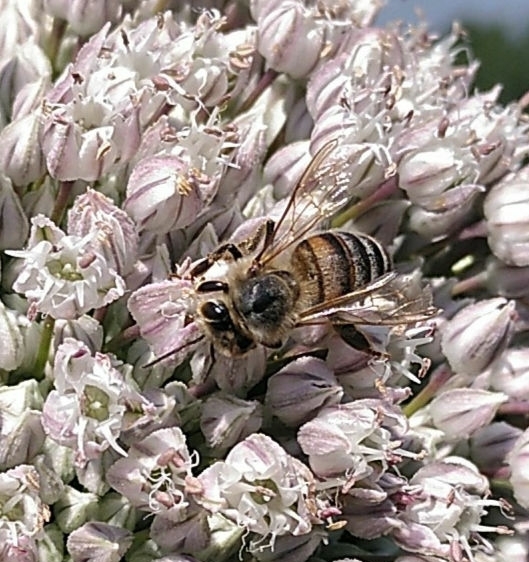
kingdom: Animalia
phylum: Arthropoda
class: Insecta
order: Hymenoptera
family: Apidae
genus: Apis
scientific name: Apis mellifera
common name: Honey bee
